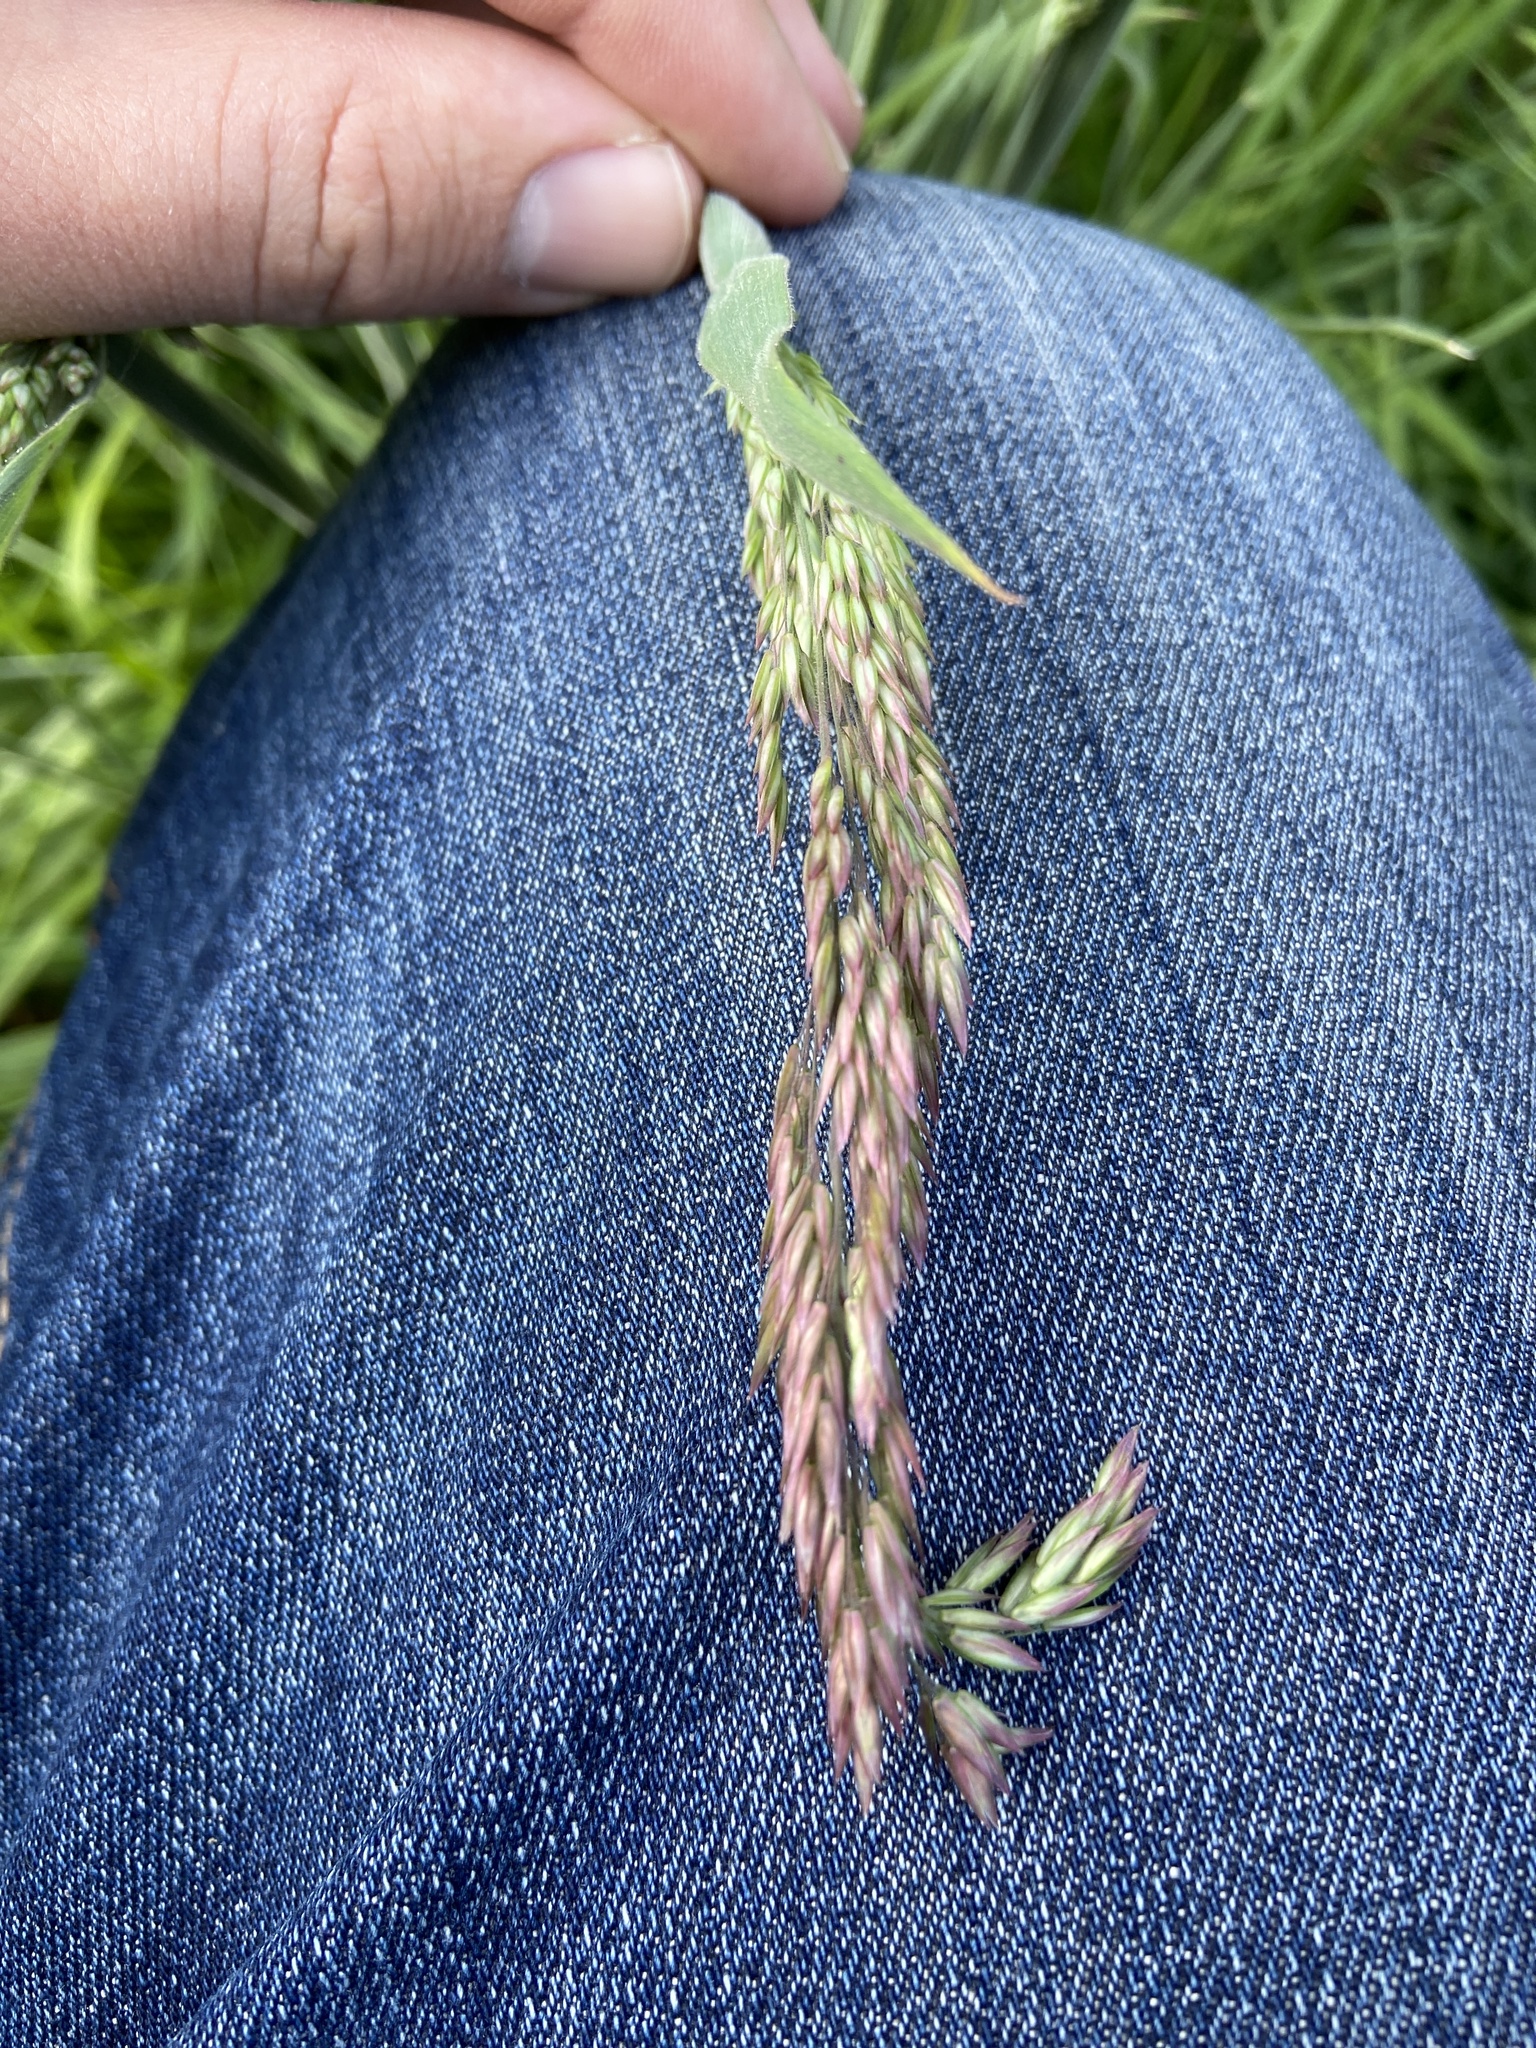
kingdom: Plantae
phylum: Tracheophyta
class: Liliopsida
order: Poales
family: Poaceae
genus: Holcus
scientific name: Holcus lanatus
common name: Yorkshire-fog
